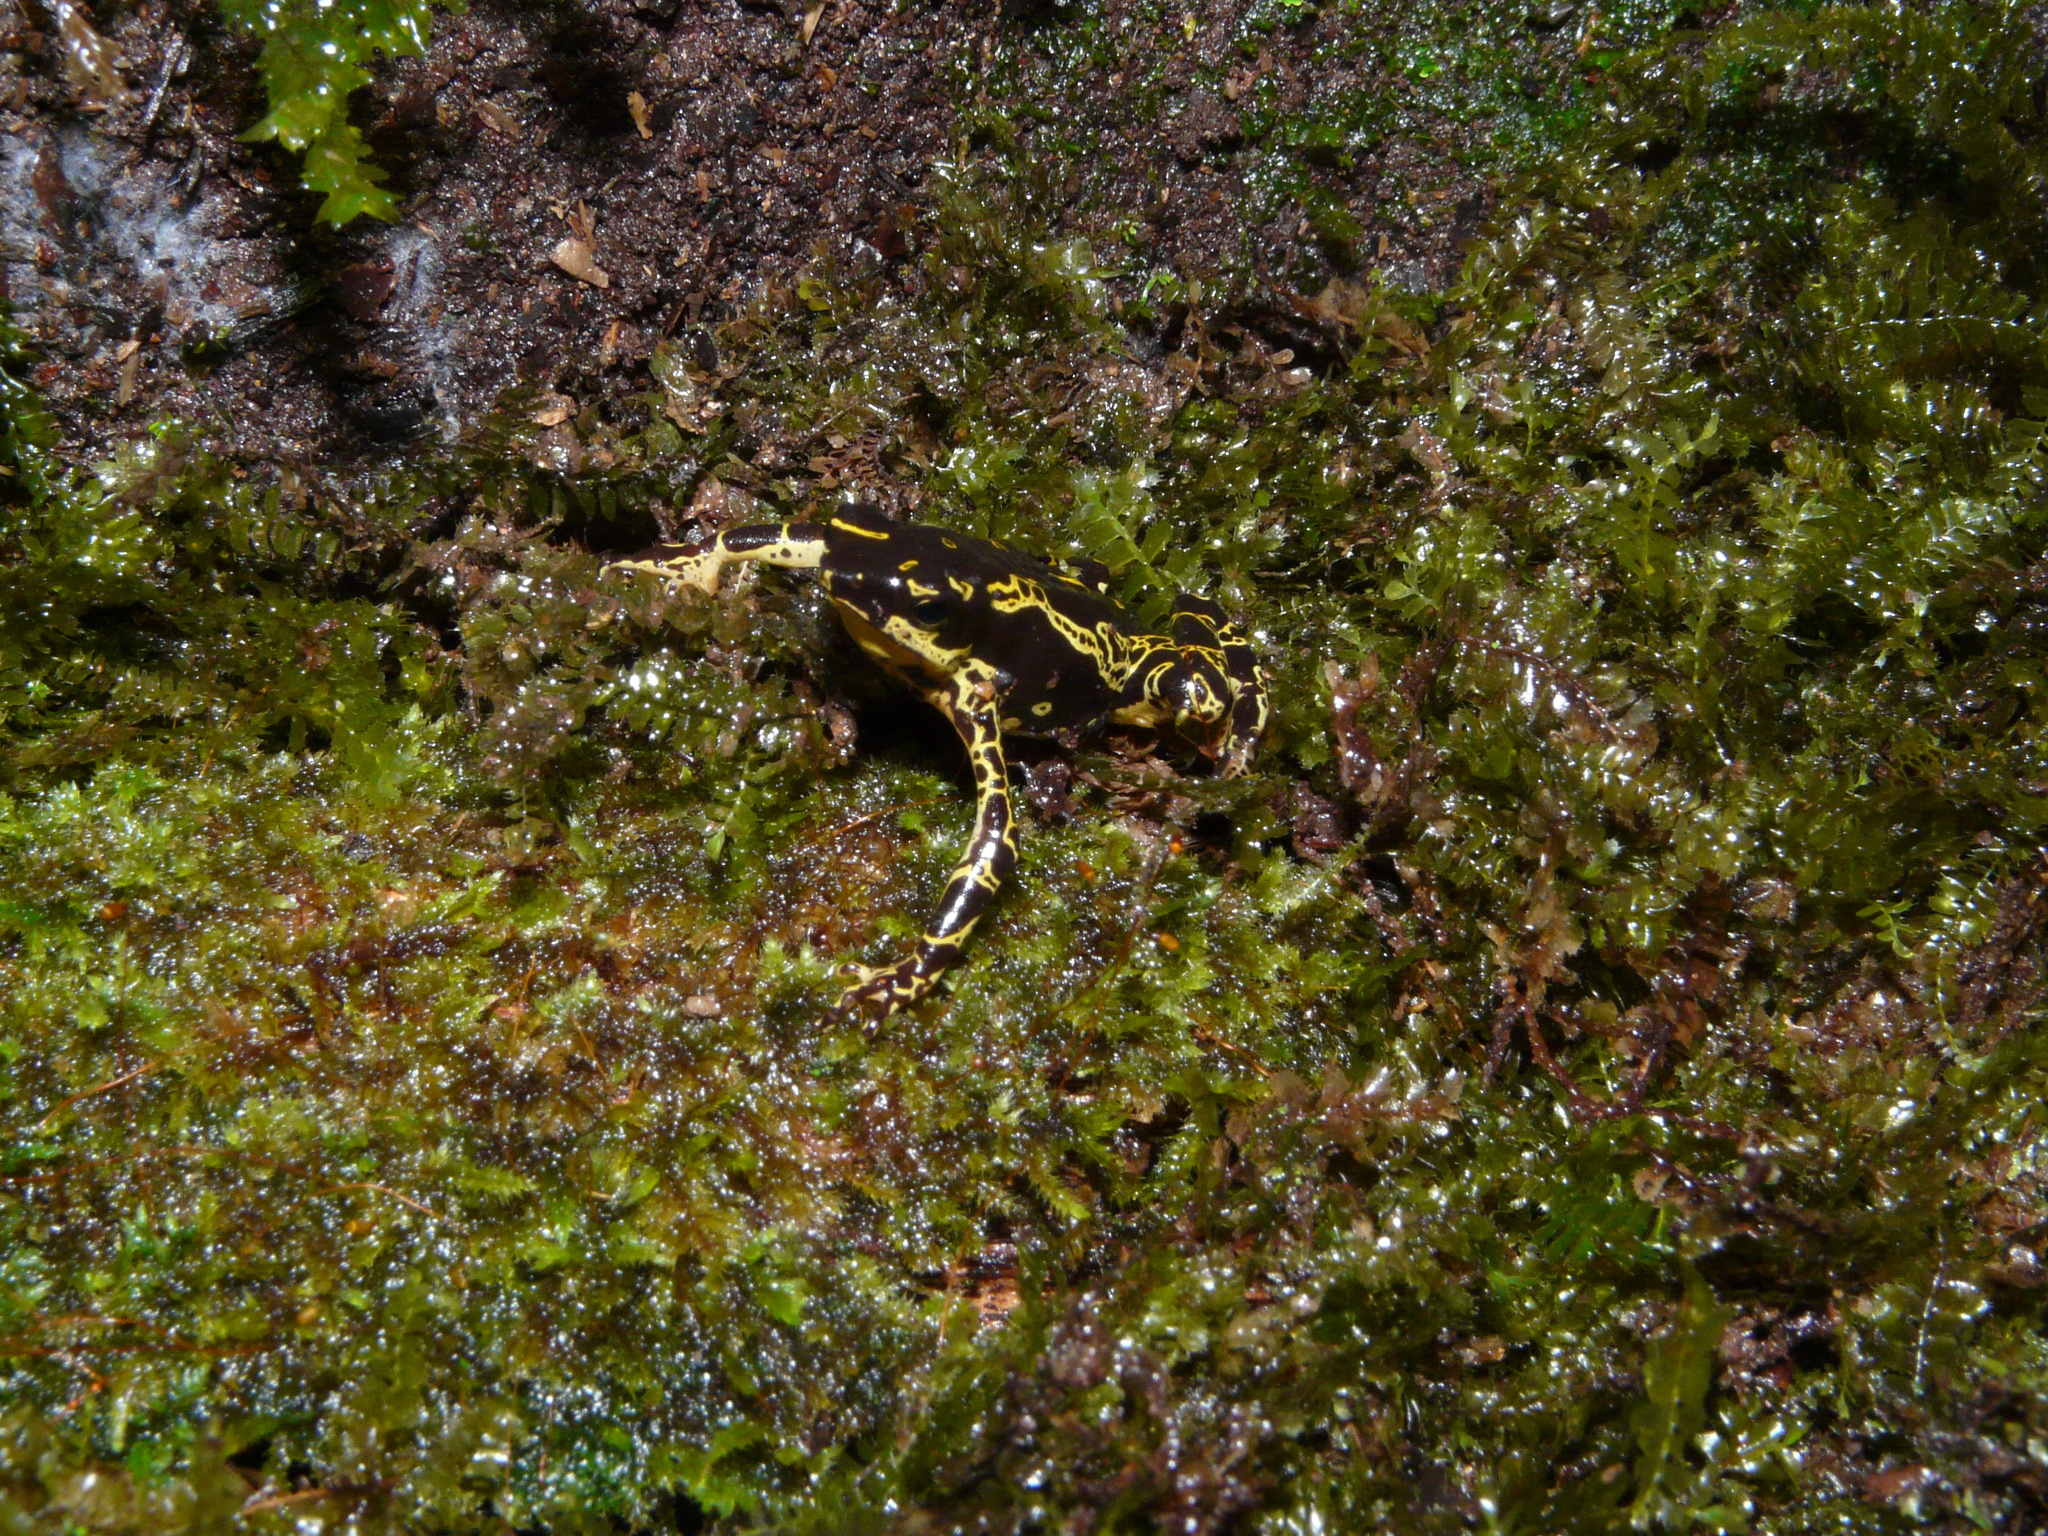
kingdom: Animalia
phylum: Chordata
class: Amphibia
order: Anura
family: Bufonidae
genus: Atelopus
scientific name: Atelopus hoogmoedi
